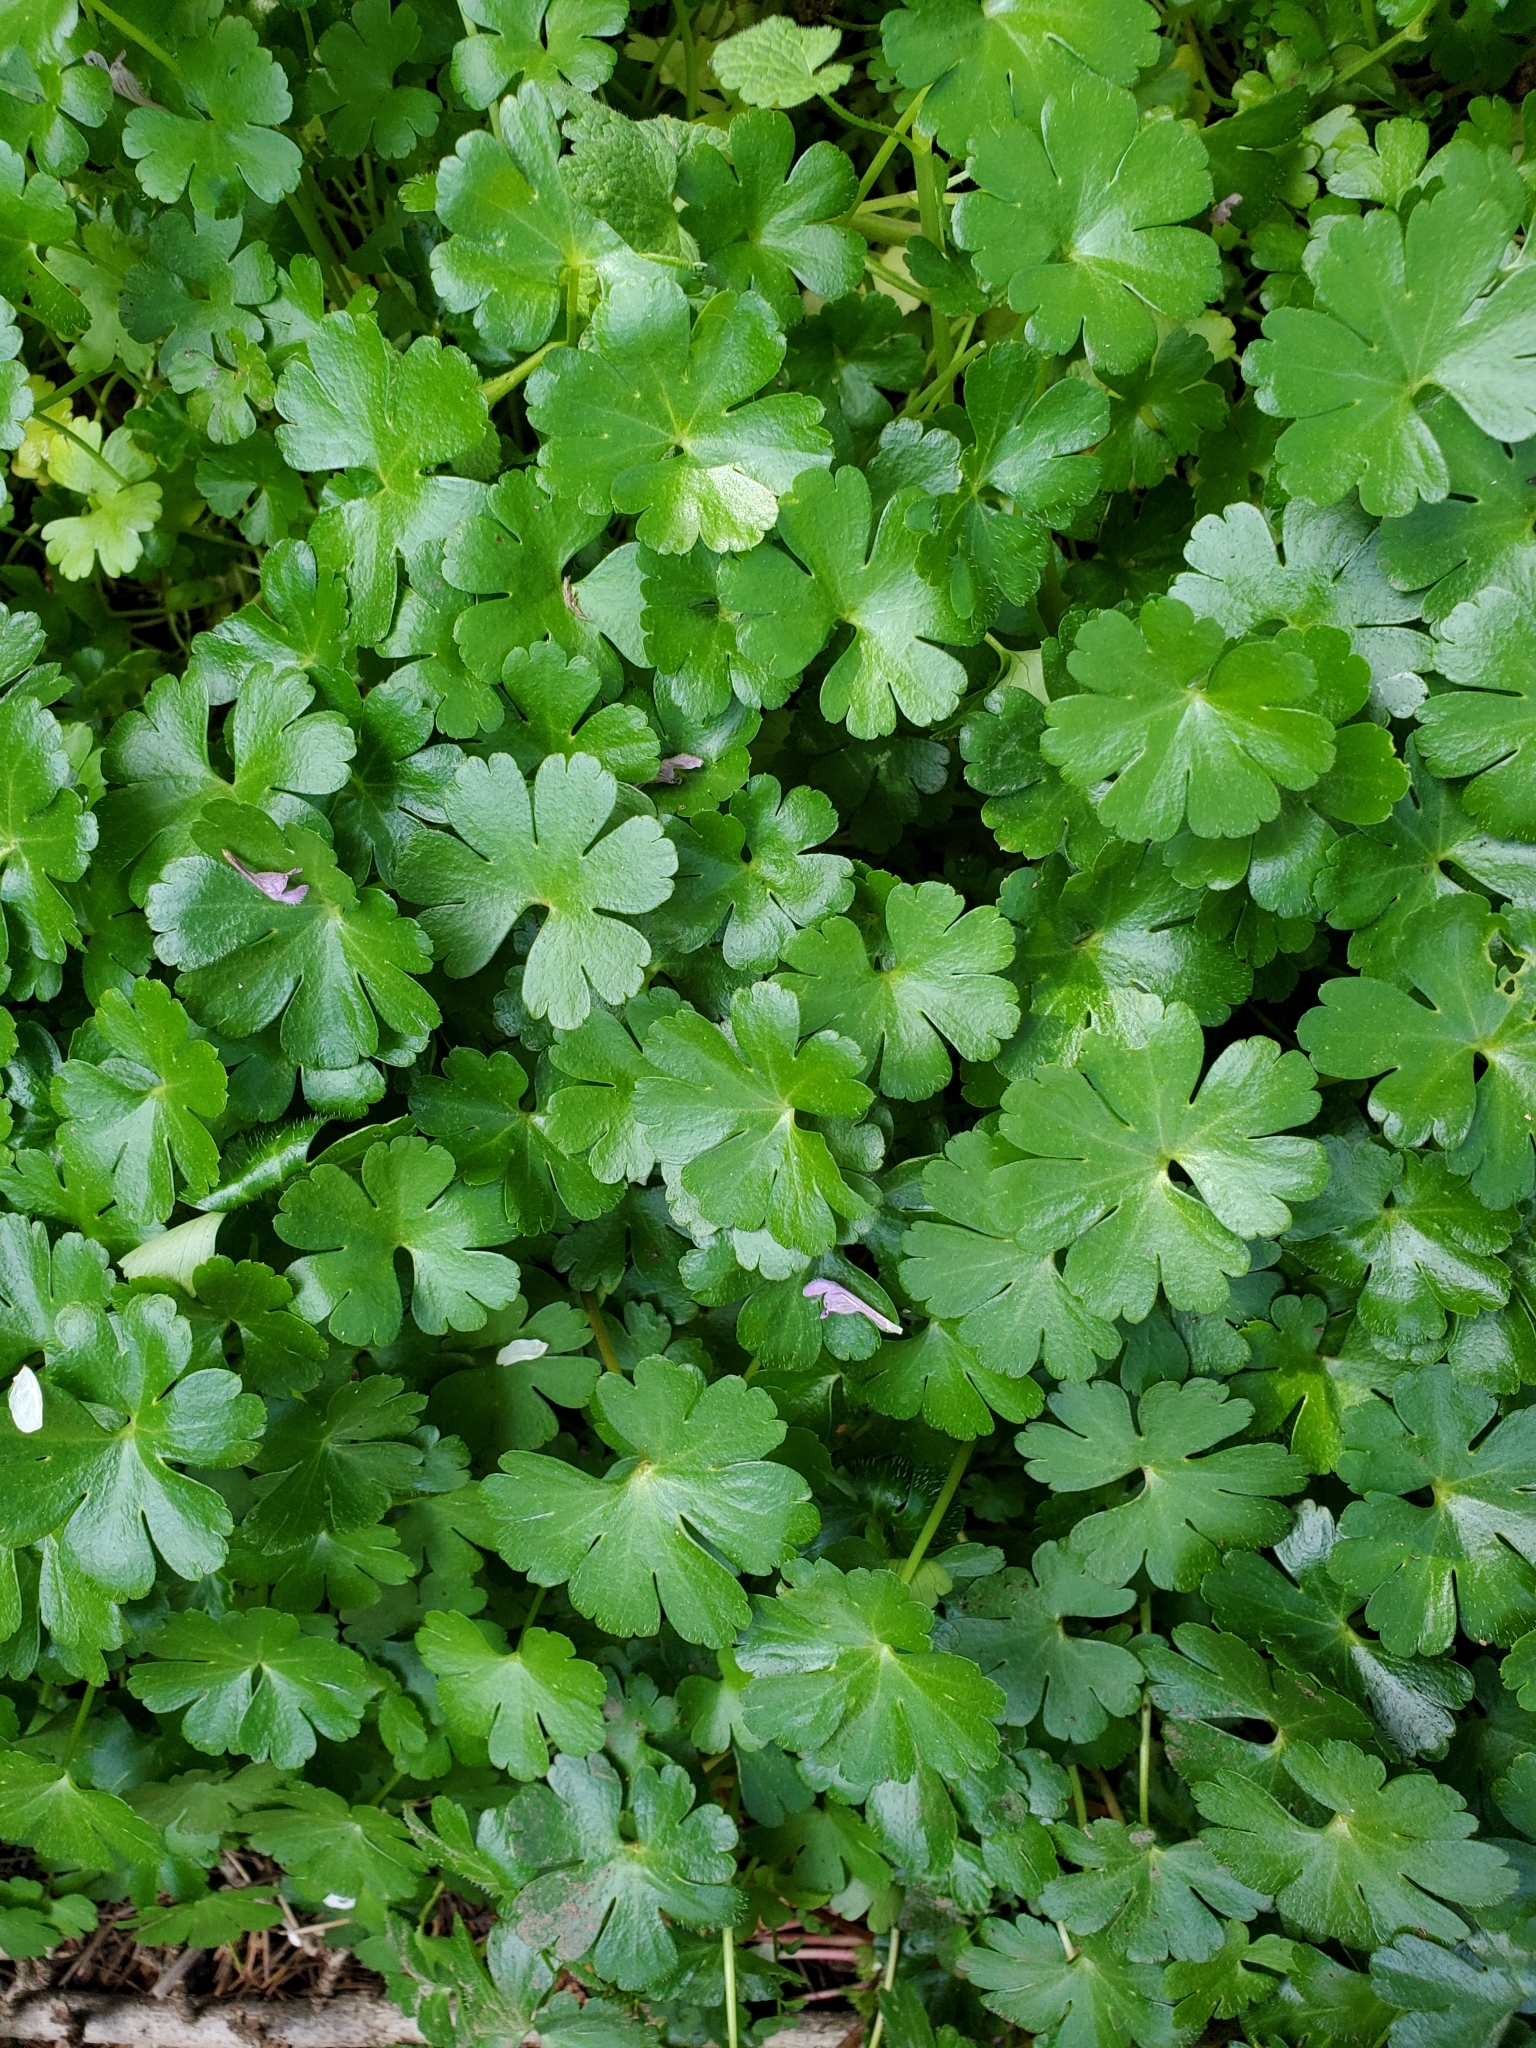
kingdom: Plantae
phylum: Tracheophyta
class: Magnoliopsida
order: Geraniales
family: Geraniaceae
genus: Geranium
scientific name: Geranium lucidum
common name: Shining crane's-bill
